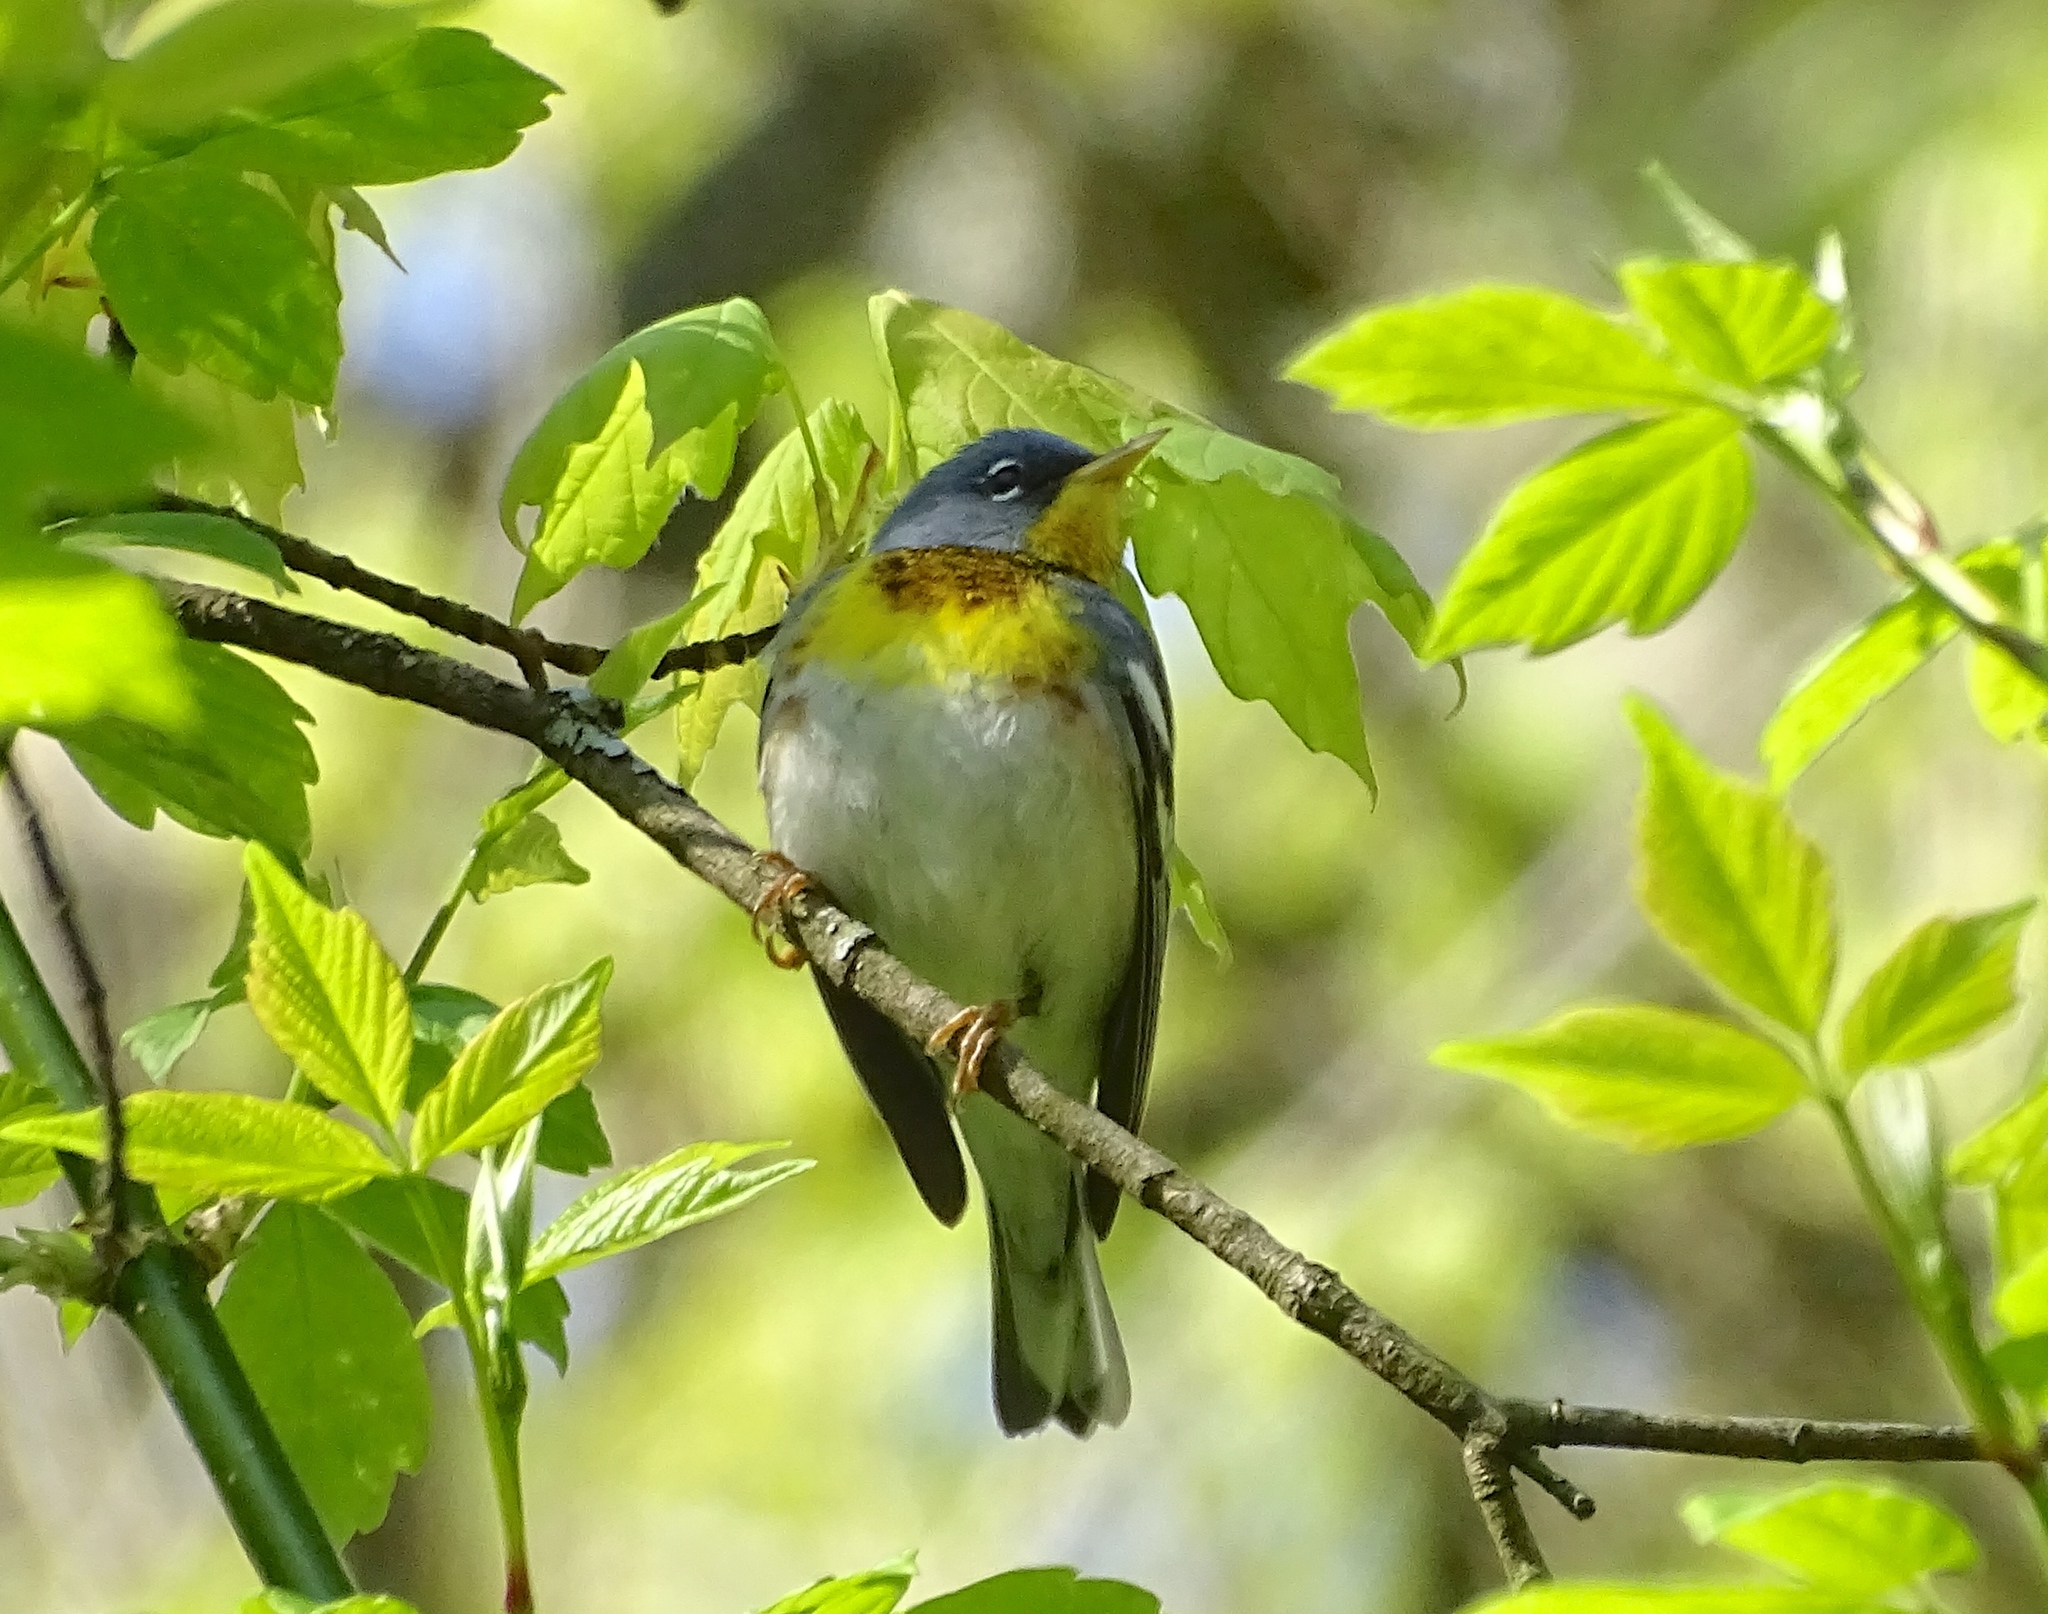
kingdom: Animalia
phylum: Chordata
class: Aves
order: Passeriformes
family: Parulidae
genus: Setophaga
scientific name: Setophaga americana
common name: Northern parula
